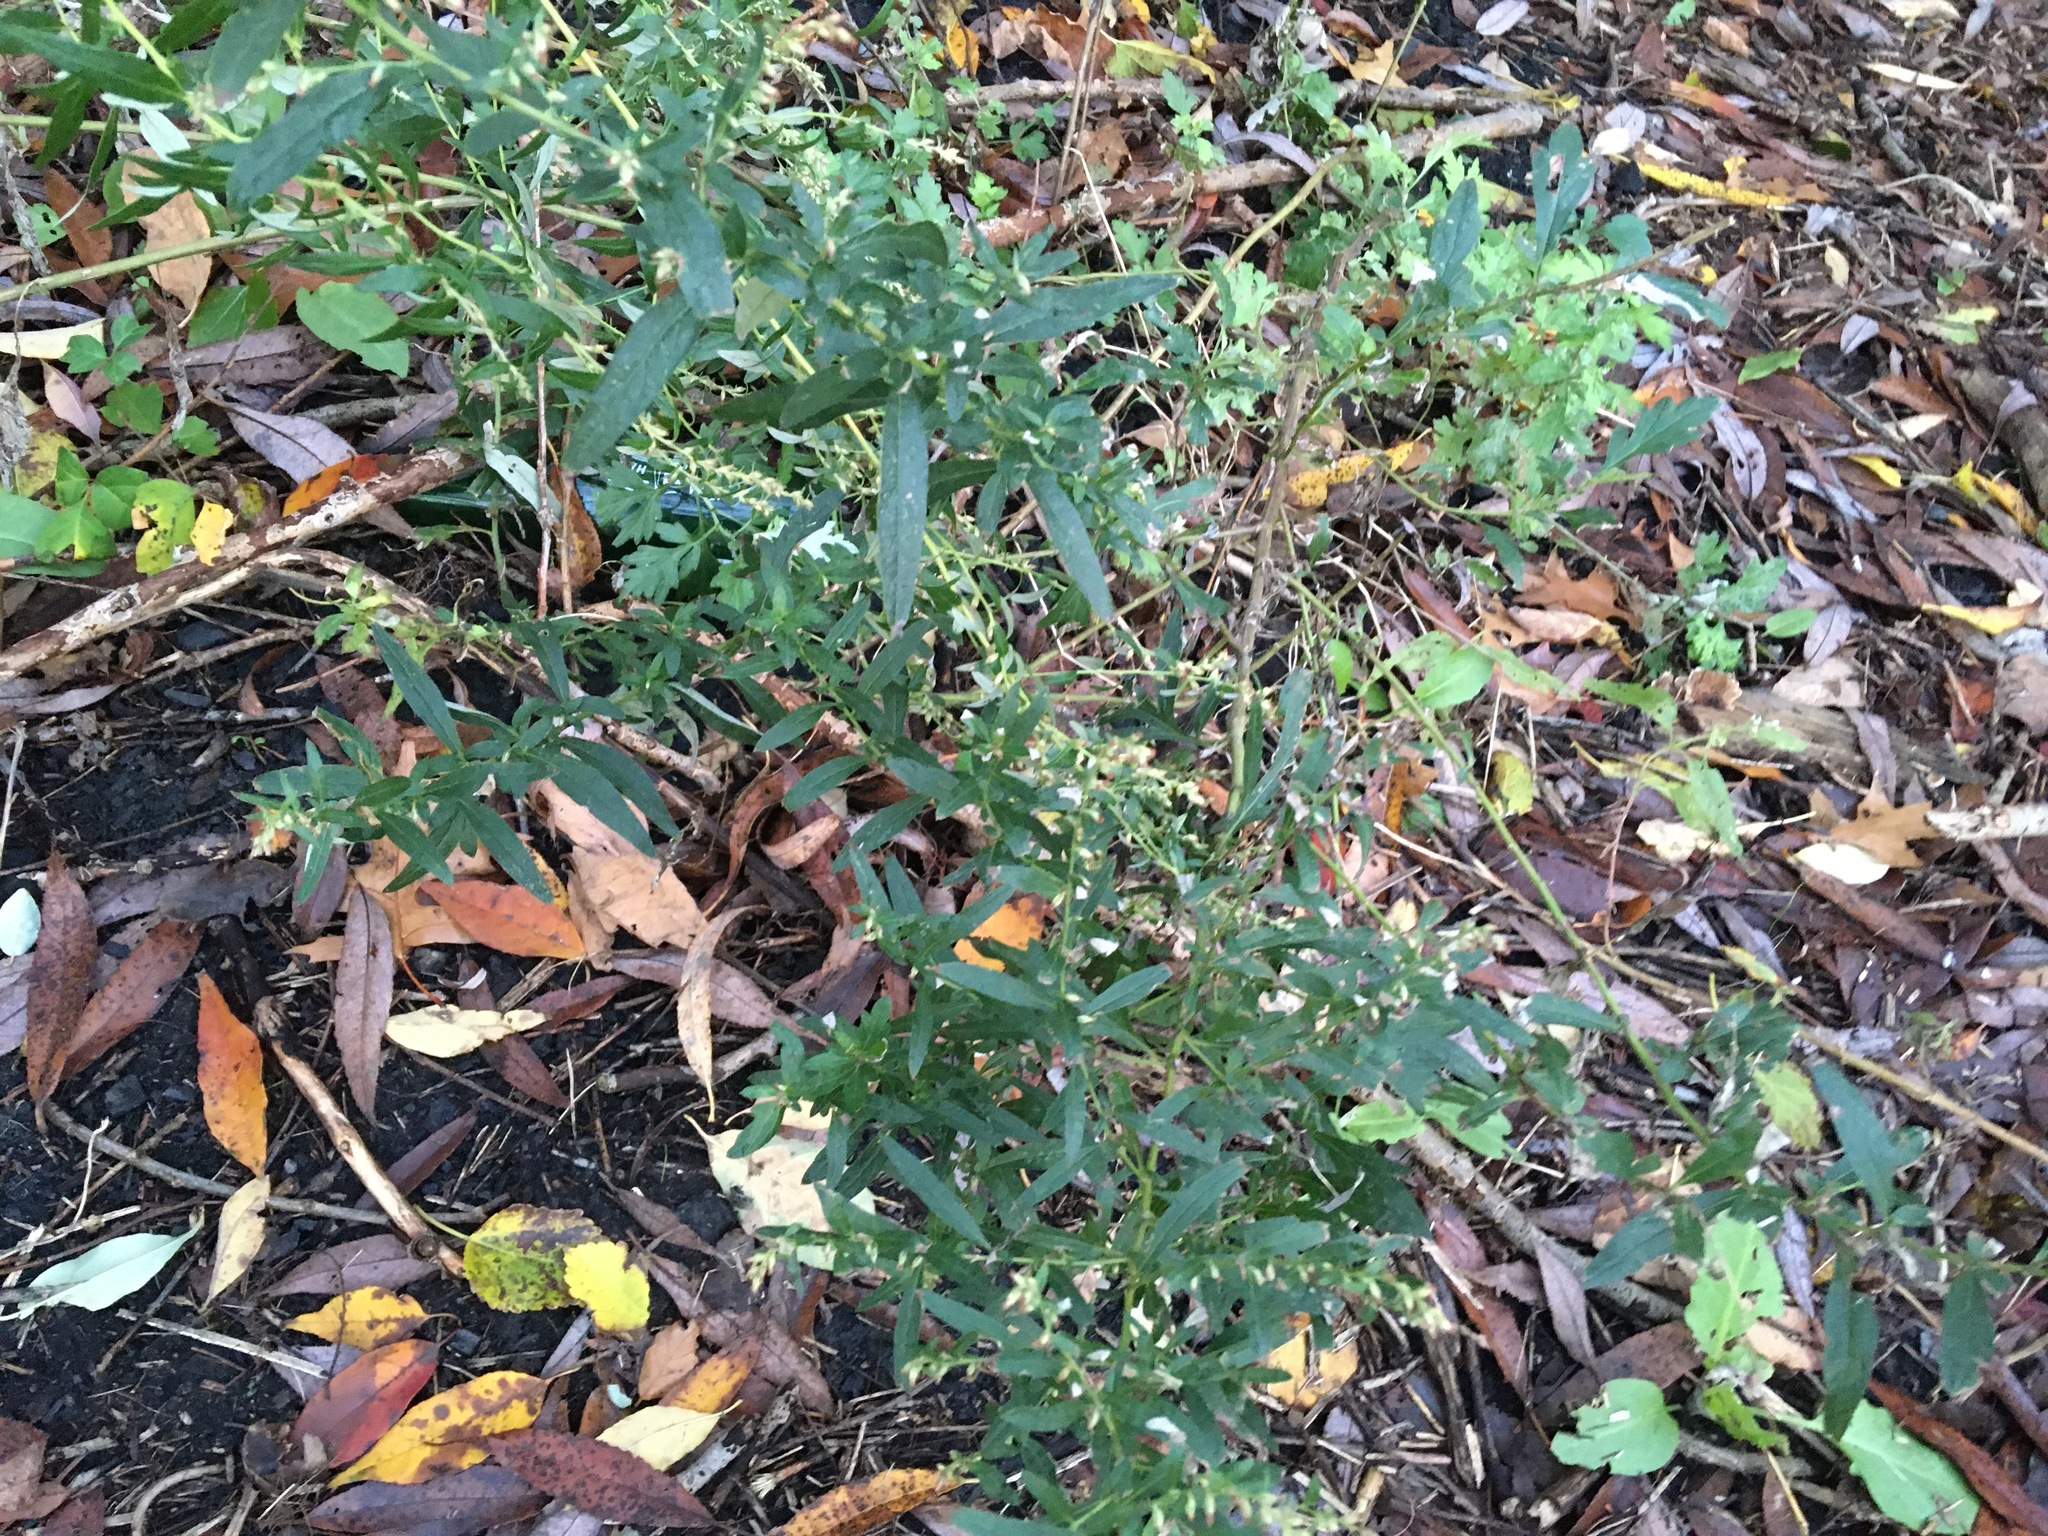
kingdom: Plantae
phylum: Tracheophyta
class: Magnoliopsida
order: Asterales
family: Asteraceae
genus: Artemisia
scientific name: Artemisia vulgaris
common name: Mugwort
